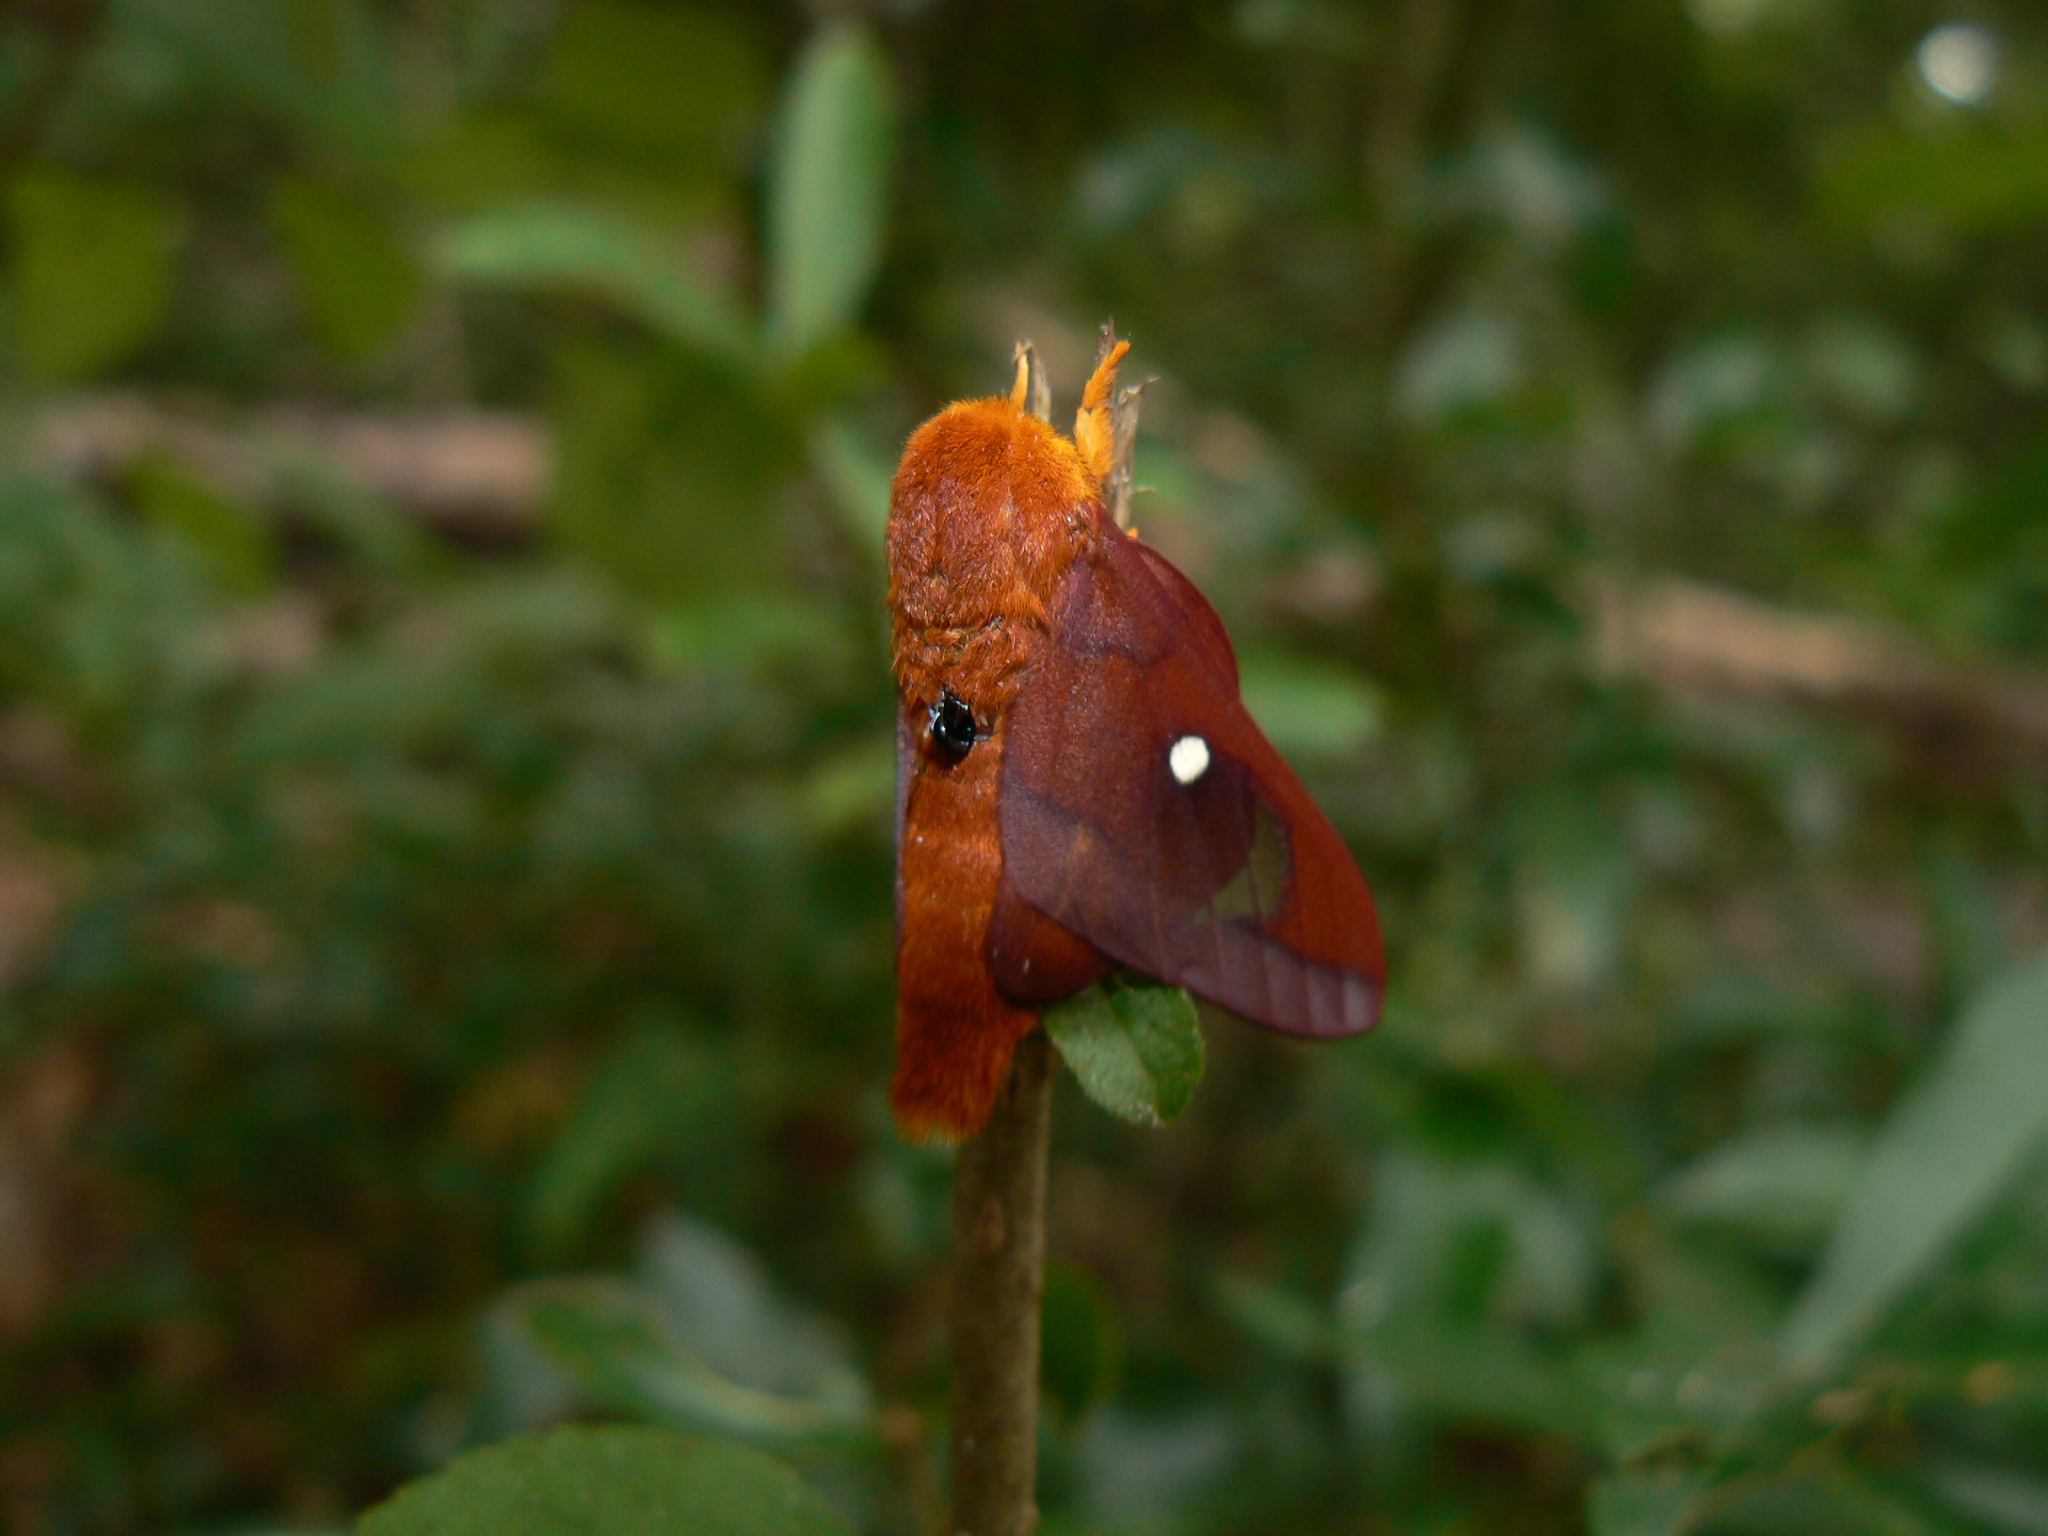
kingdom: Animalia
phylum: Arthropoda
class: Insecta
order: Lepidoptera
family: Saturniidae
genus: Anisota
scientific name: Anisota virginiensis
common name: Pink striped oakworm moth
